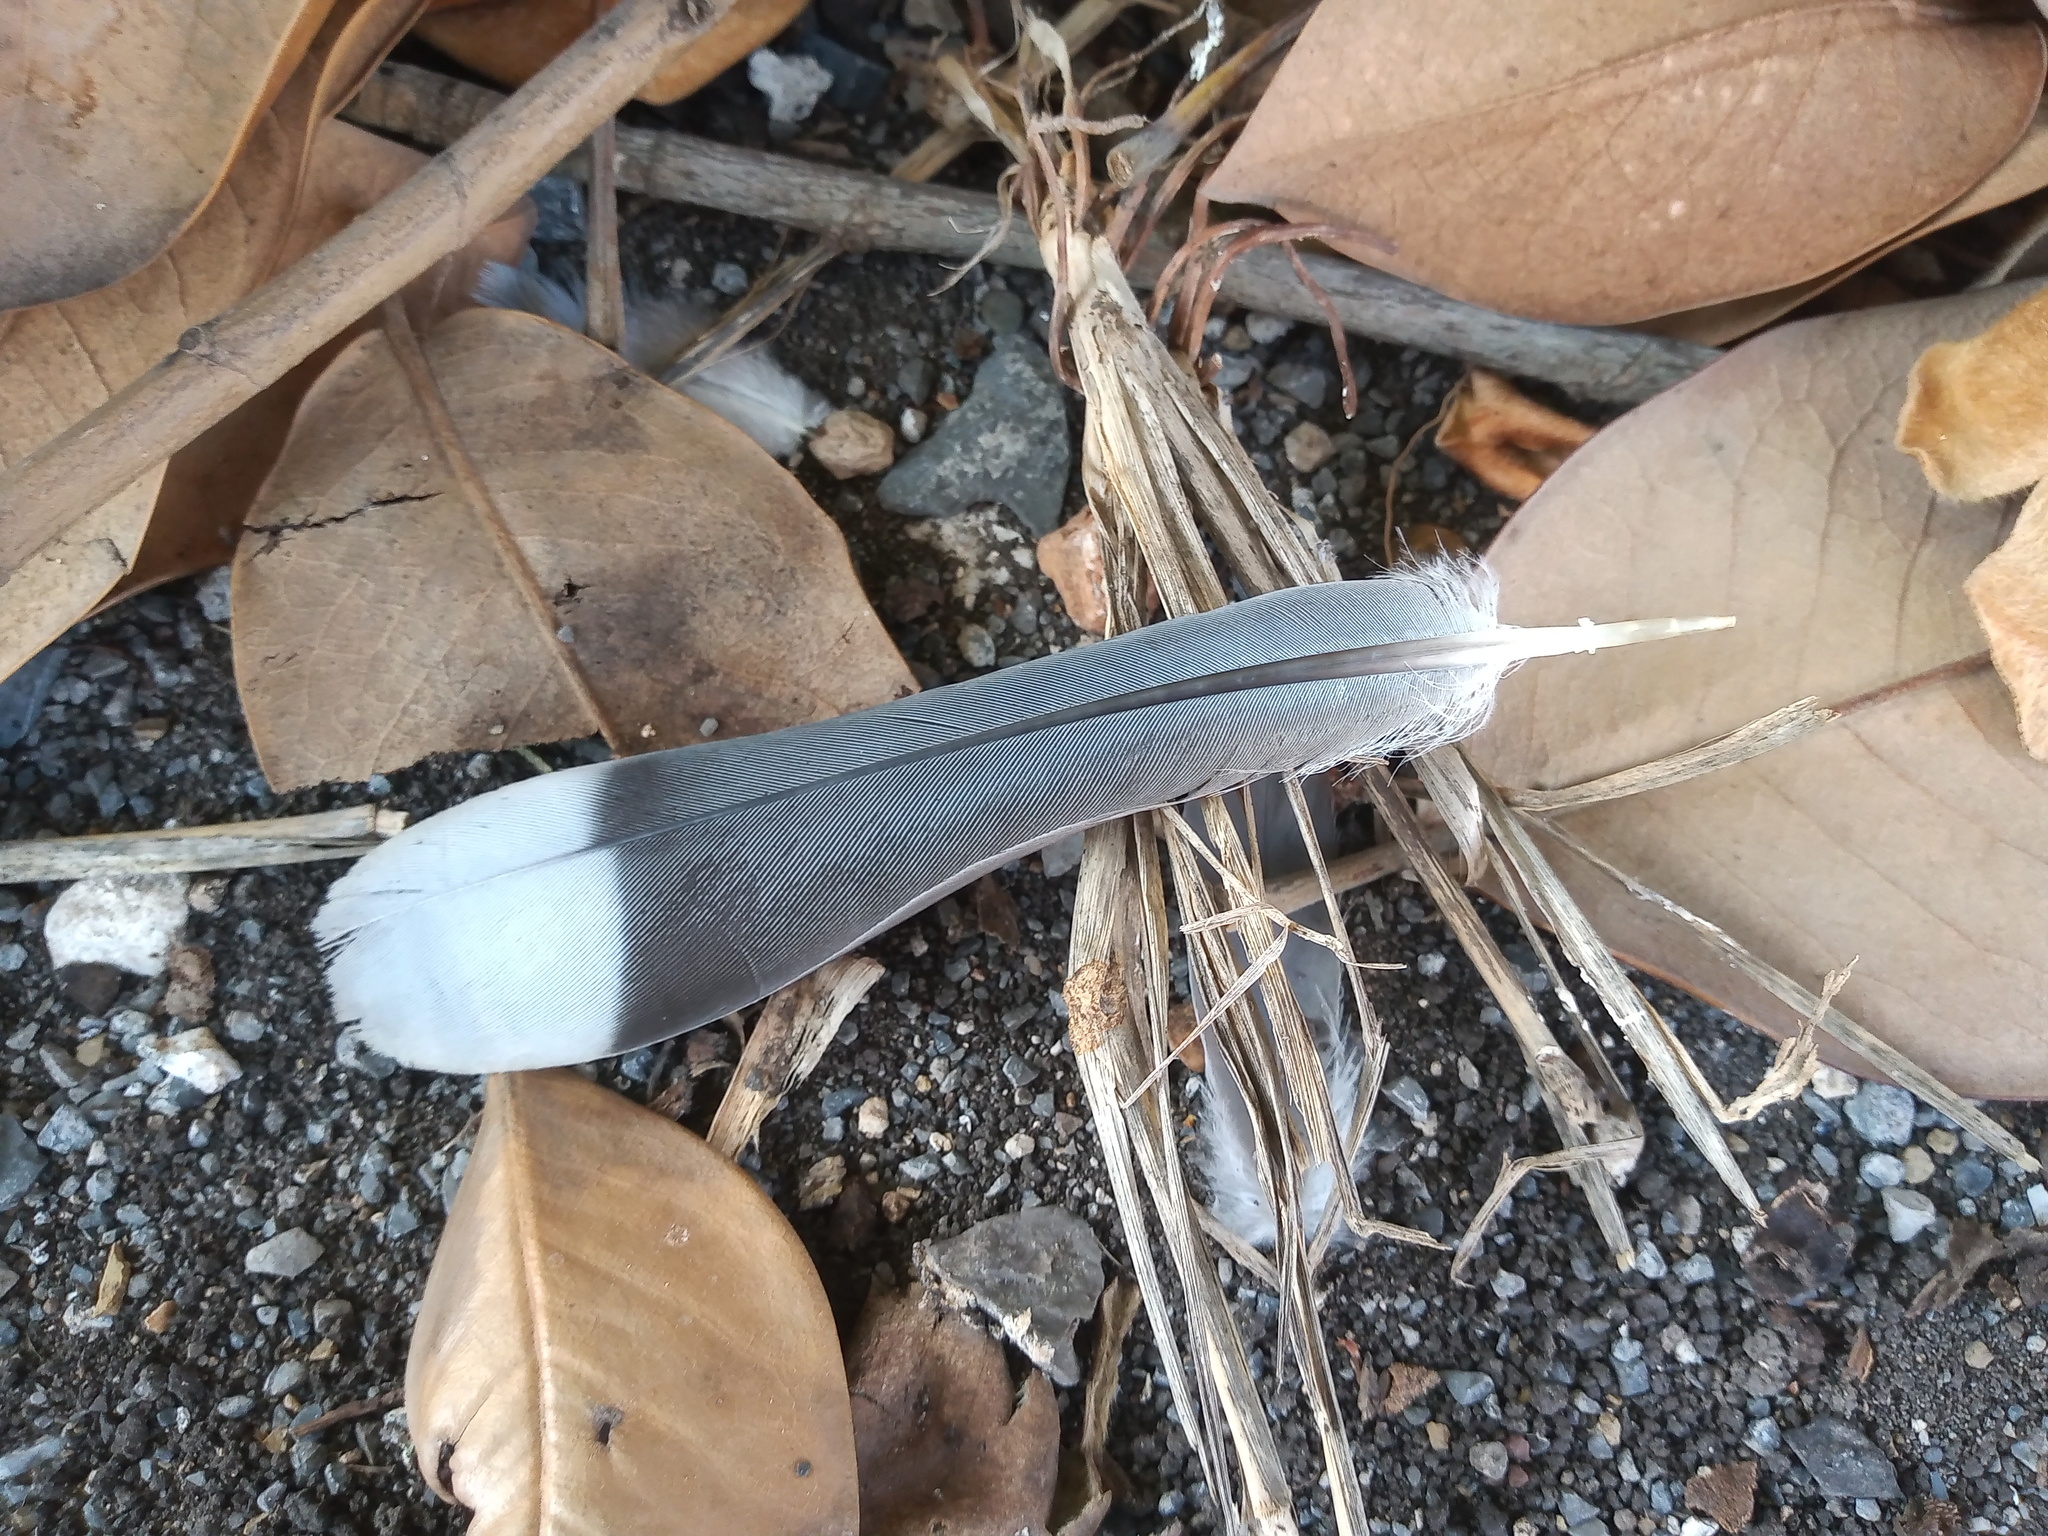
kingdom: Animalia
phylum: Chordata
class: Aves
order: Columbiformes
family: Columbidae
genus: Zenaida
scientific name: Zenaida asiatica
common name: White-winged dove
